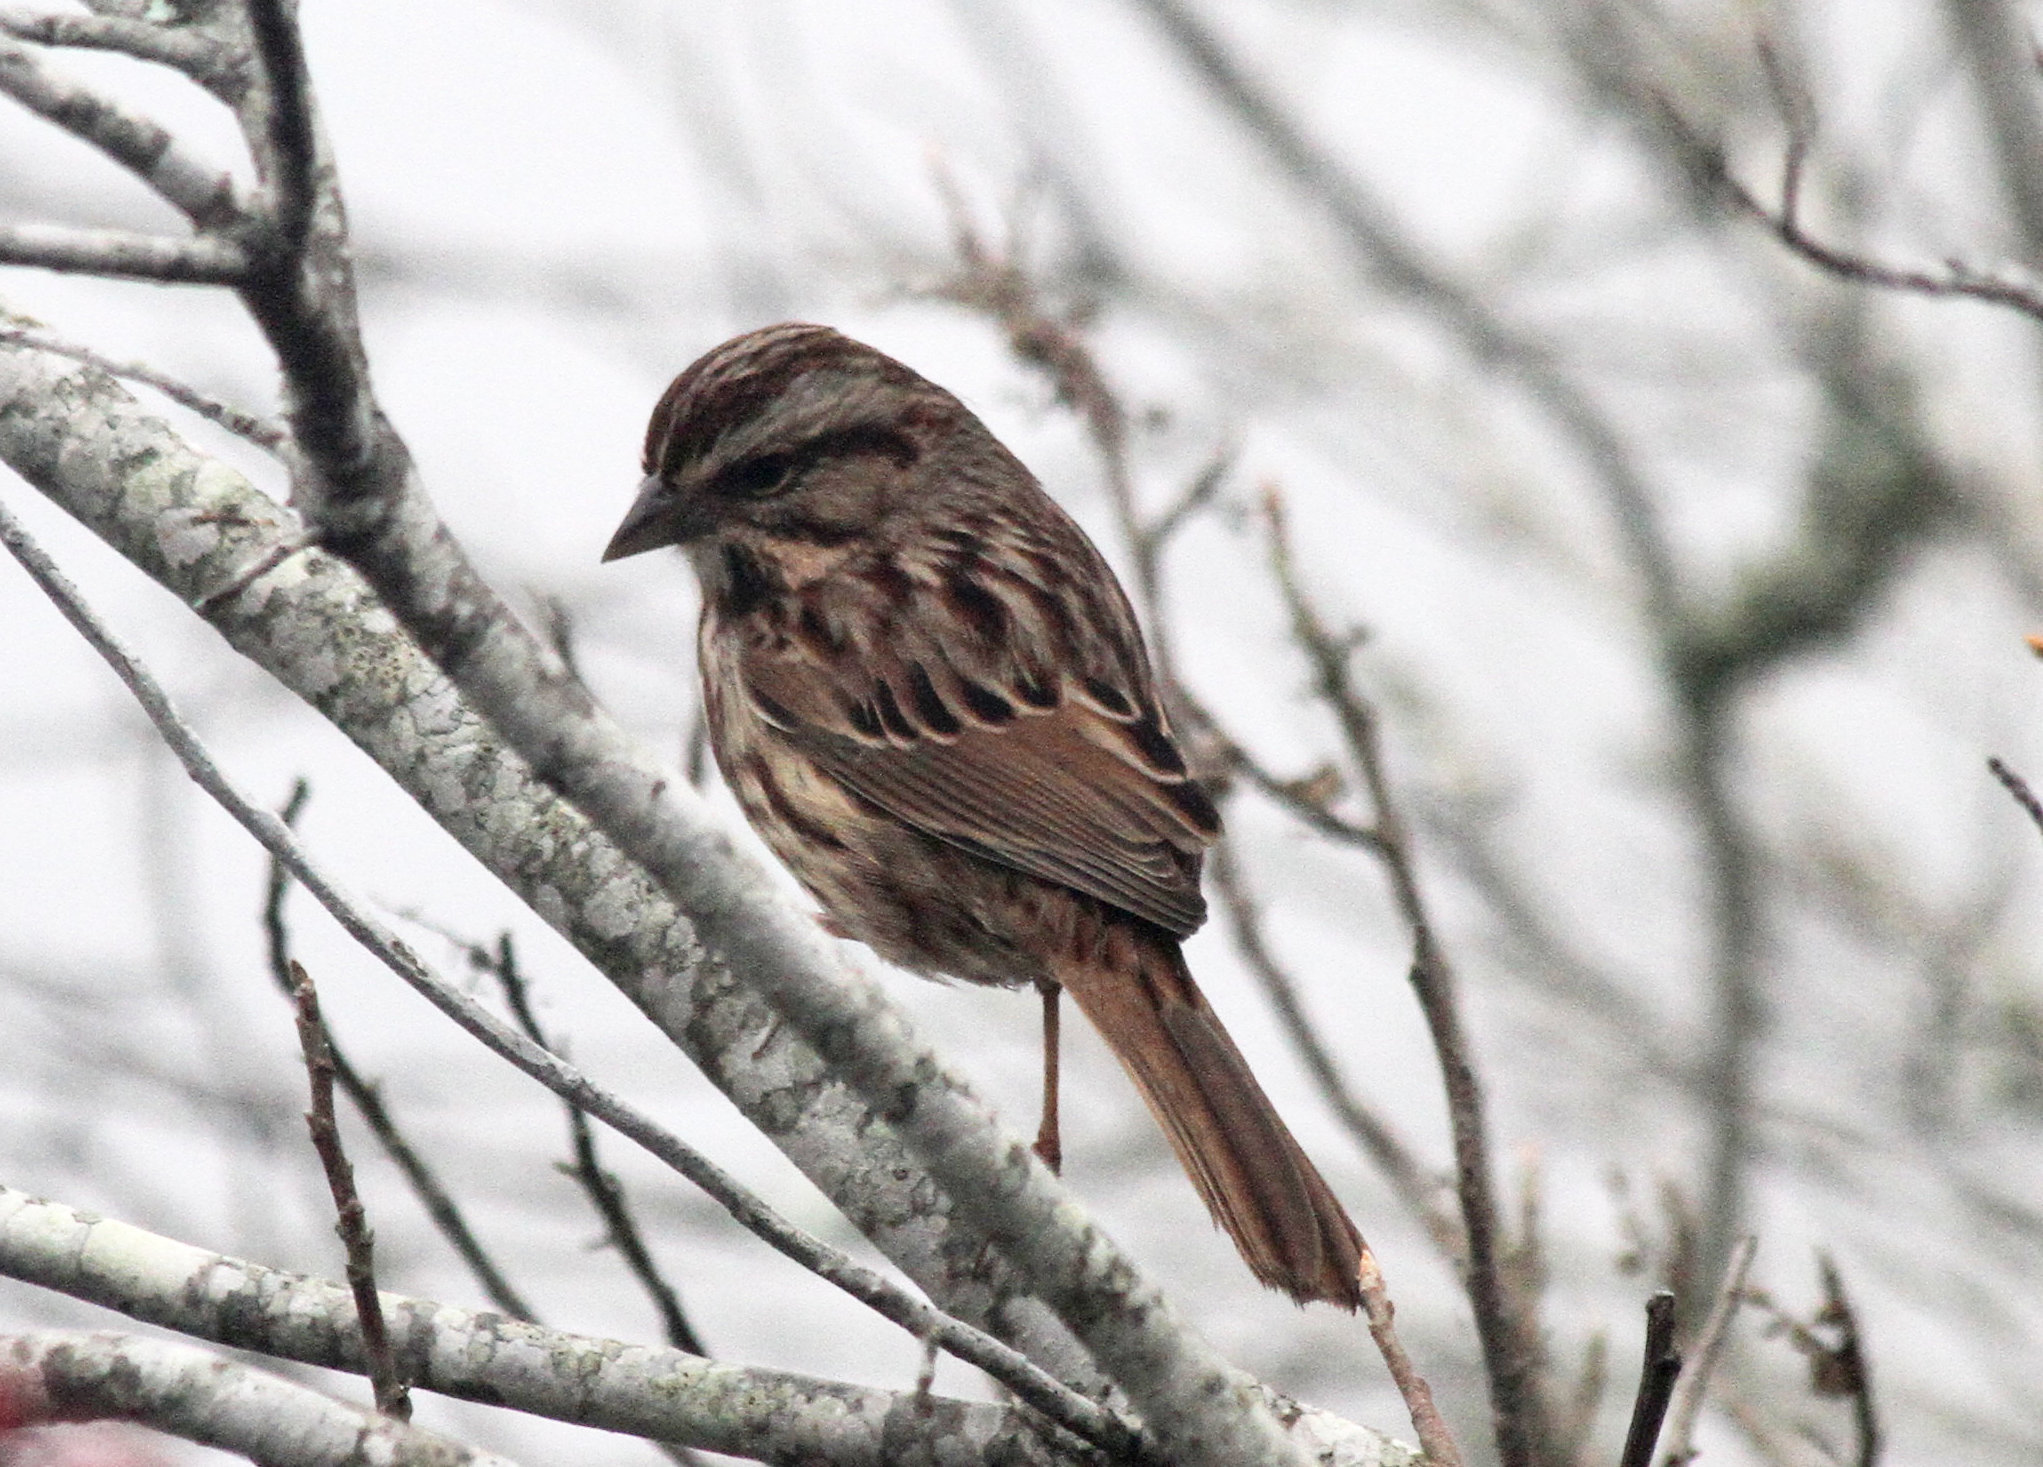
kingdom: Animalia
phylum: Chordata
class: Aves
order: Passeriformes
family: Passerellidae
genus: Melospiza
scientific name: Melospiza melodia
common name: Song sparrow
